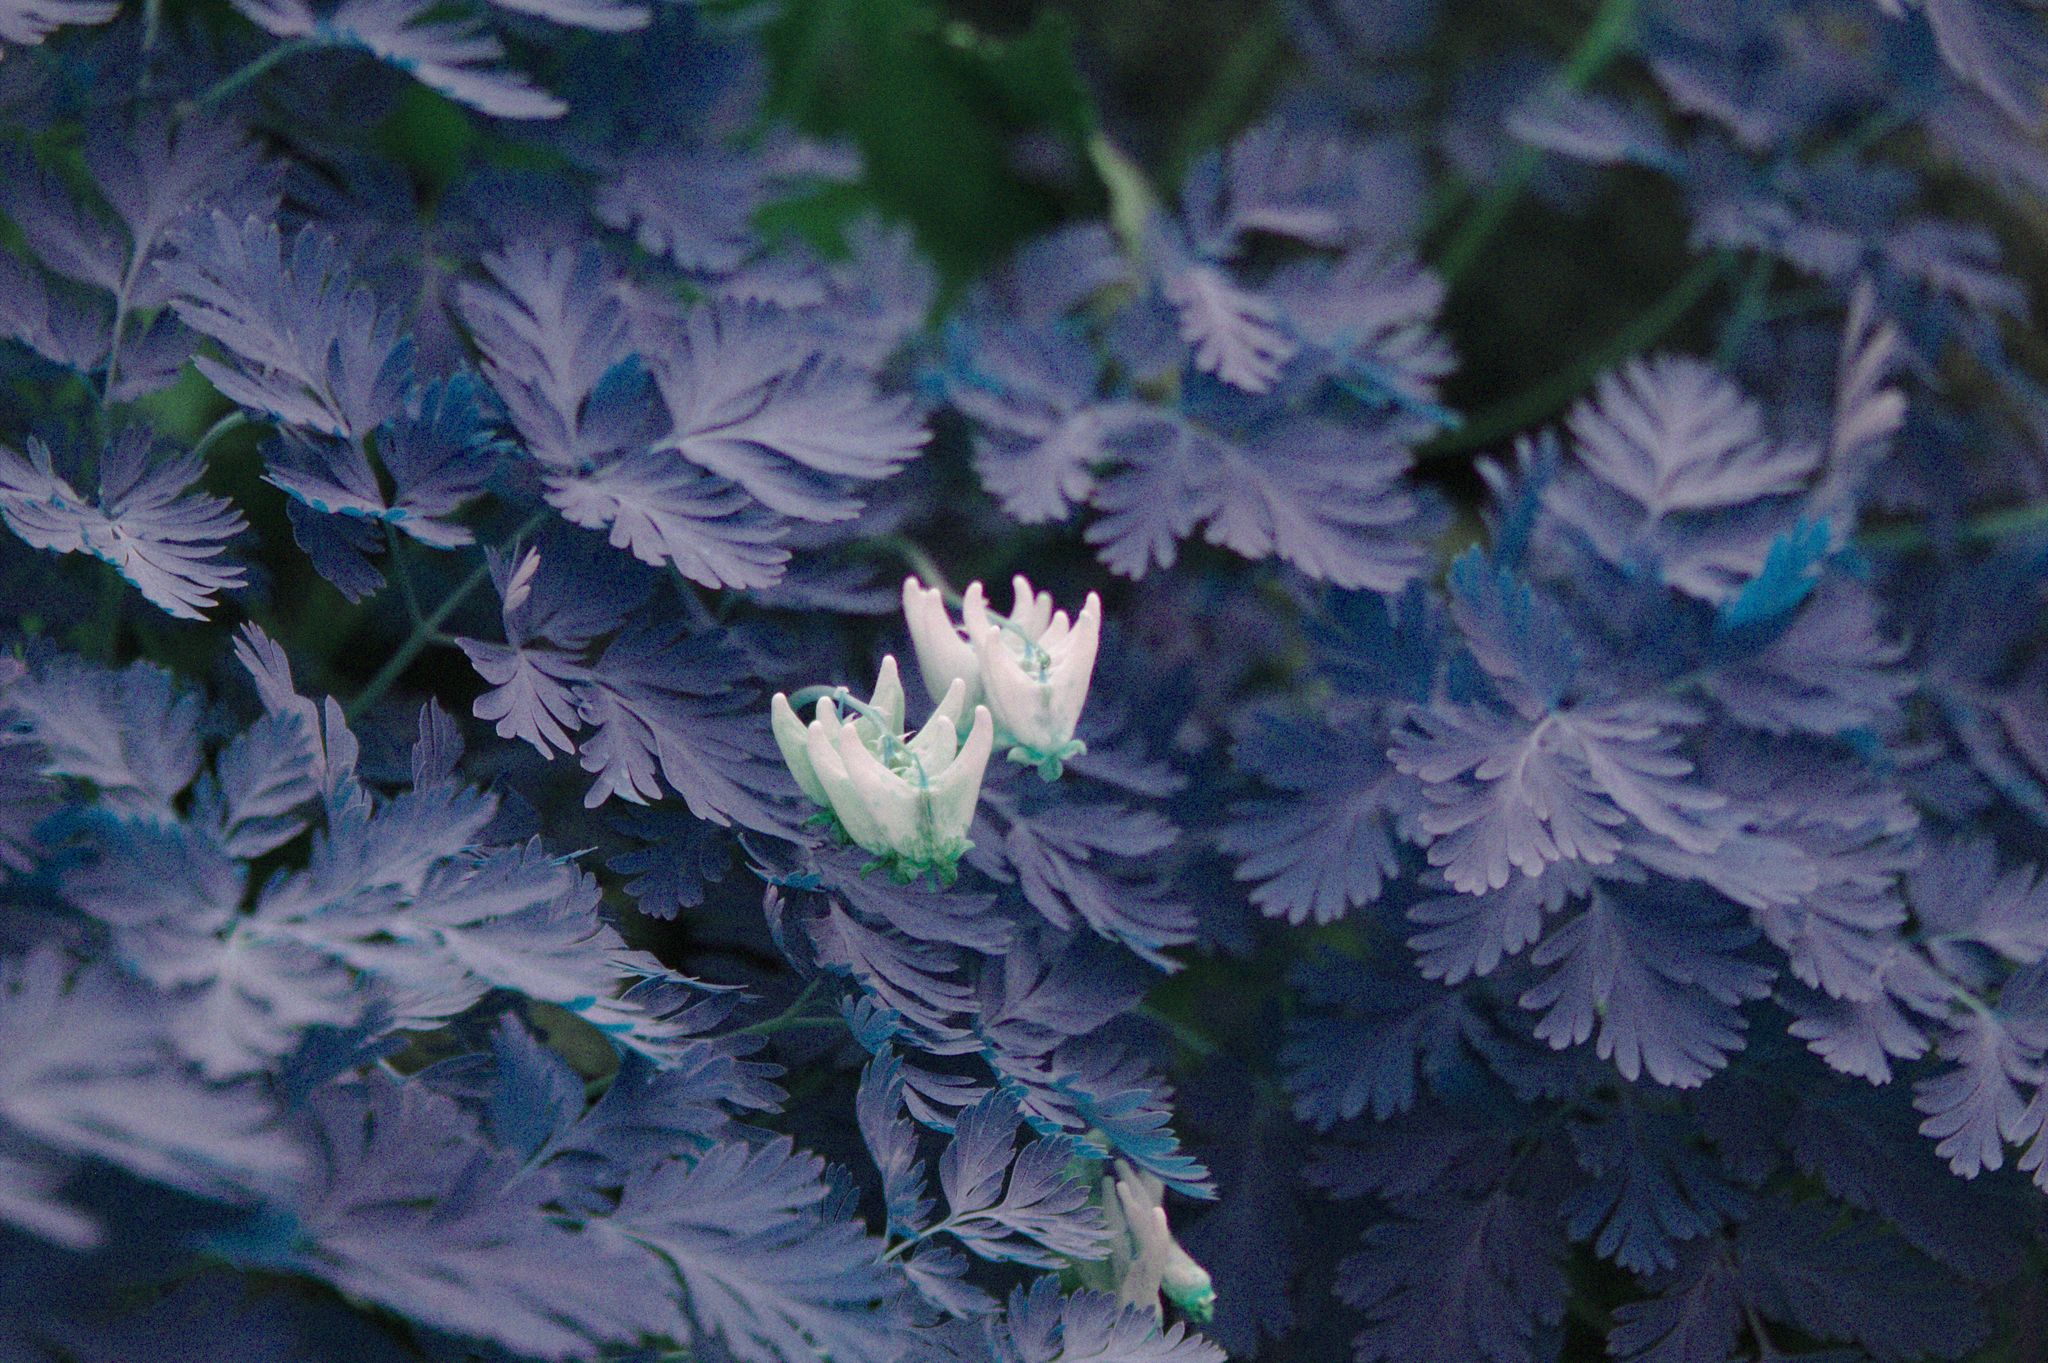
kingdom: Plantae
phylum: Tracheophyta
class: Magnoliopsida
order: Ranunculales
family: Papaveraceae
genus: Dicentra
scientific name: Dicentra cucullaria
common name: Dutchman's breeches
